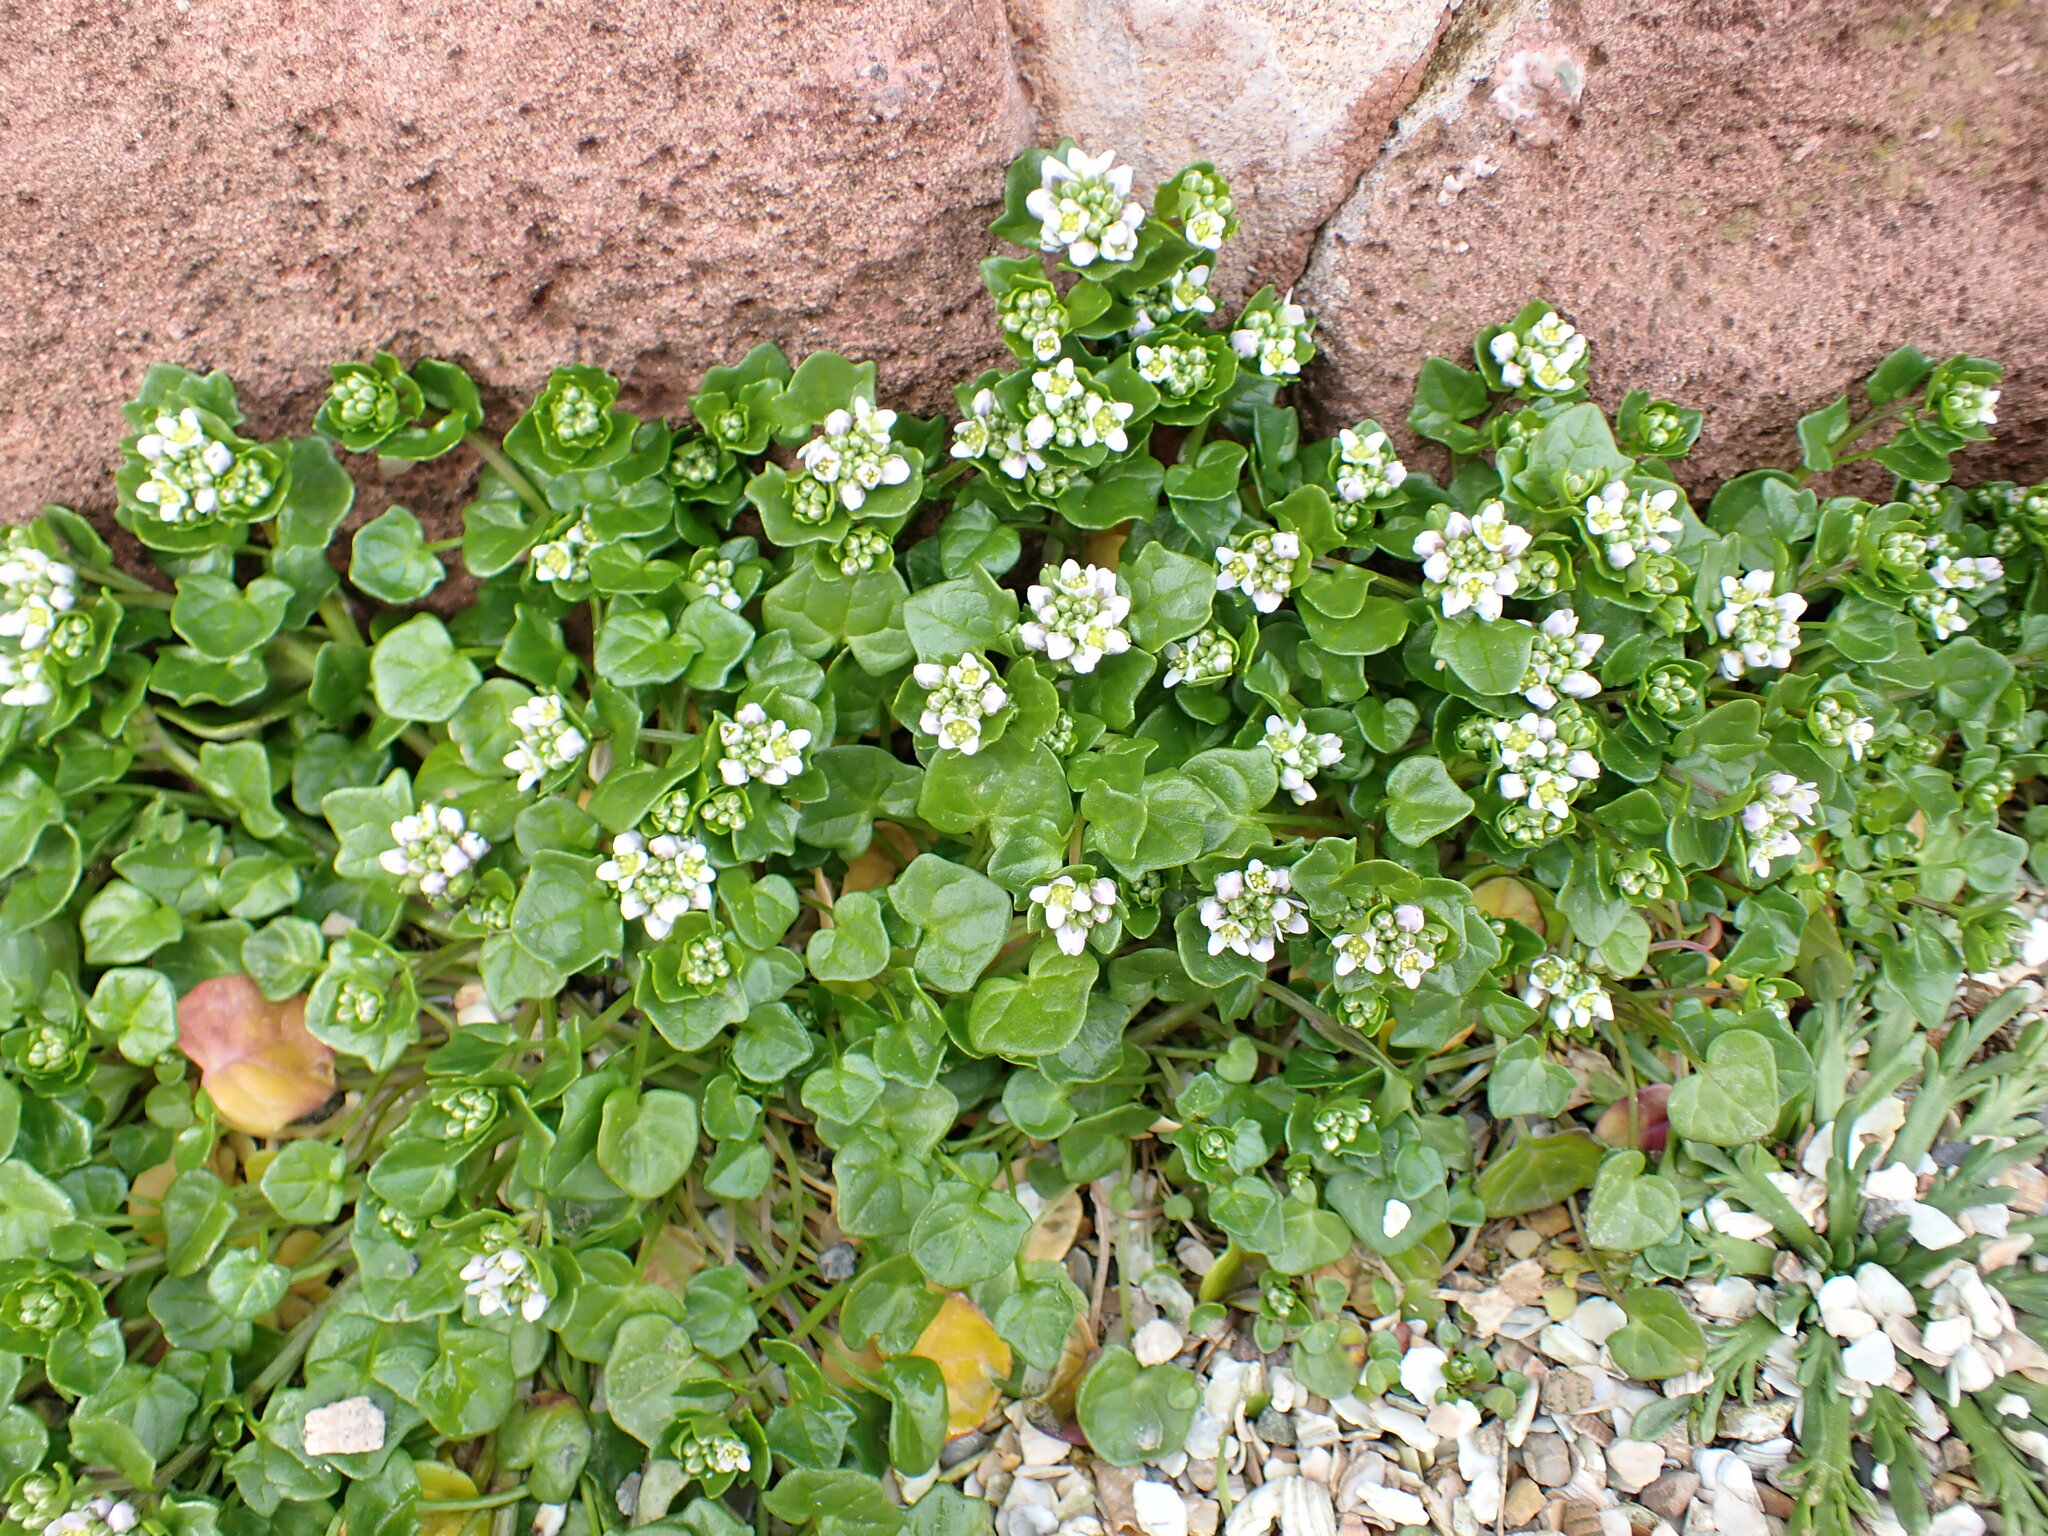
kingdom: Plantae
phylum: Tracheophyta
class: Magnoliopsida
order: Brassicales
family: Brassicaceae
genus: Cochlearia
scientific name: Cochlearia danica
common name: Early scurvygrass
